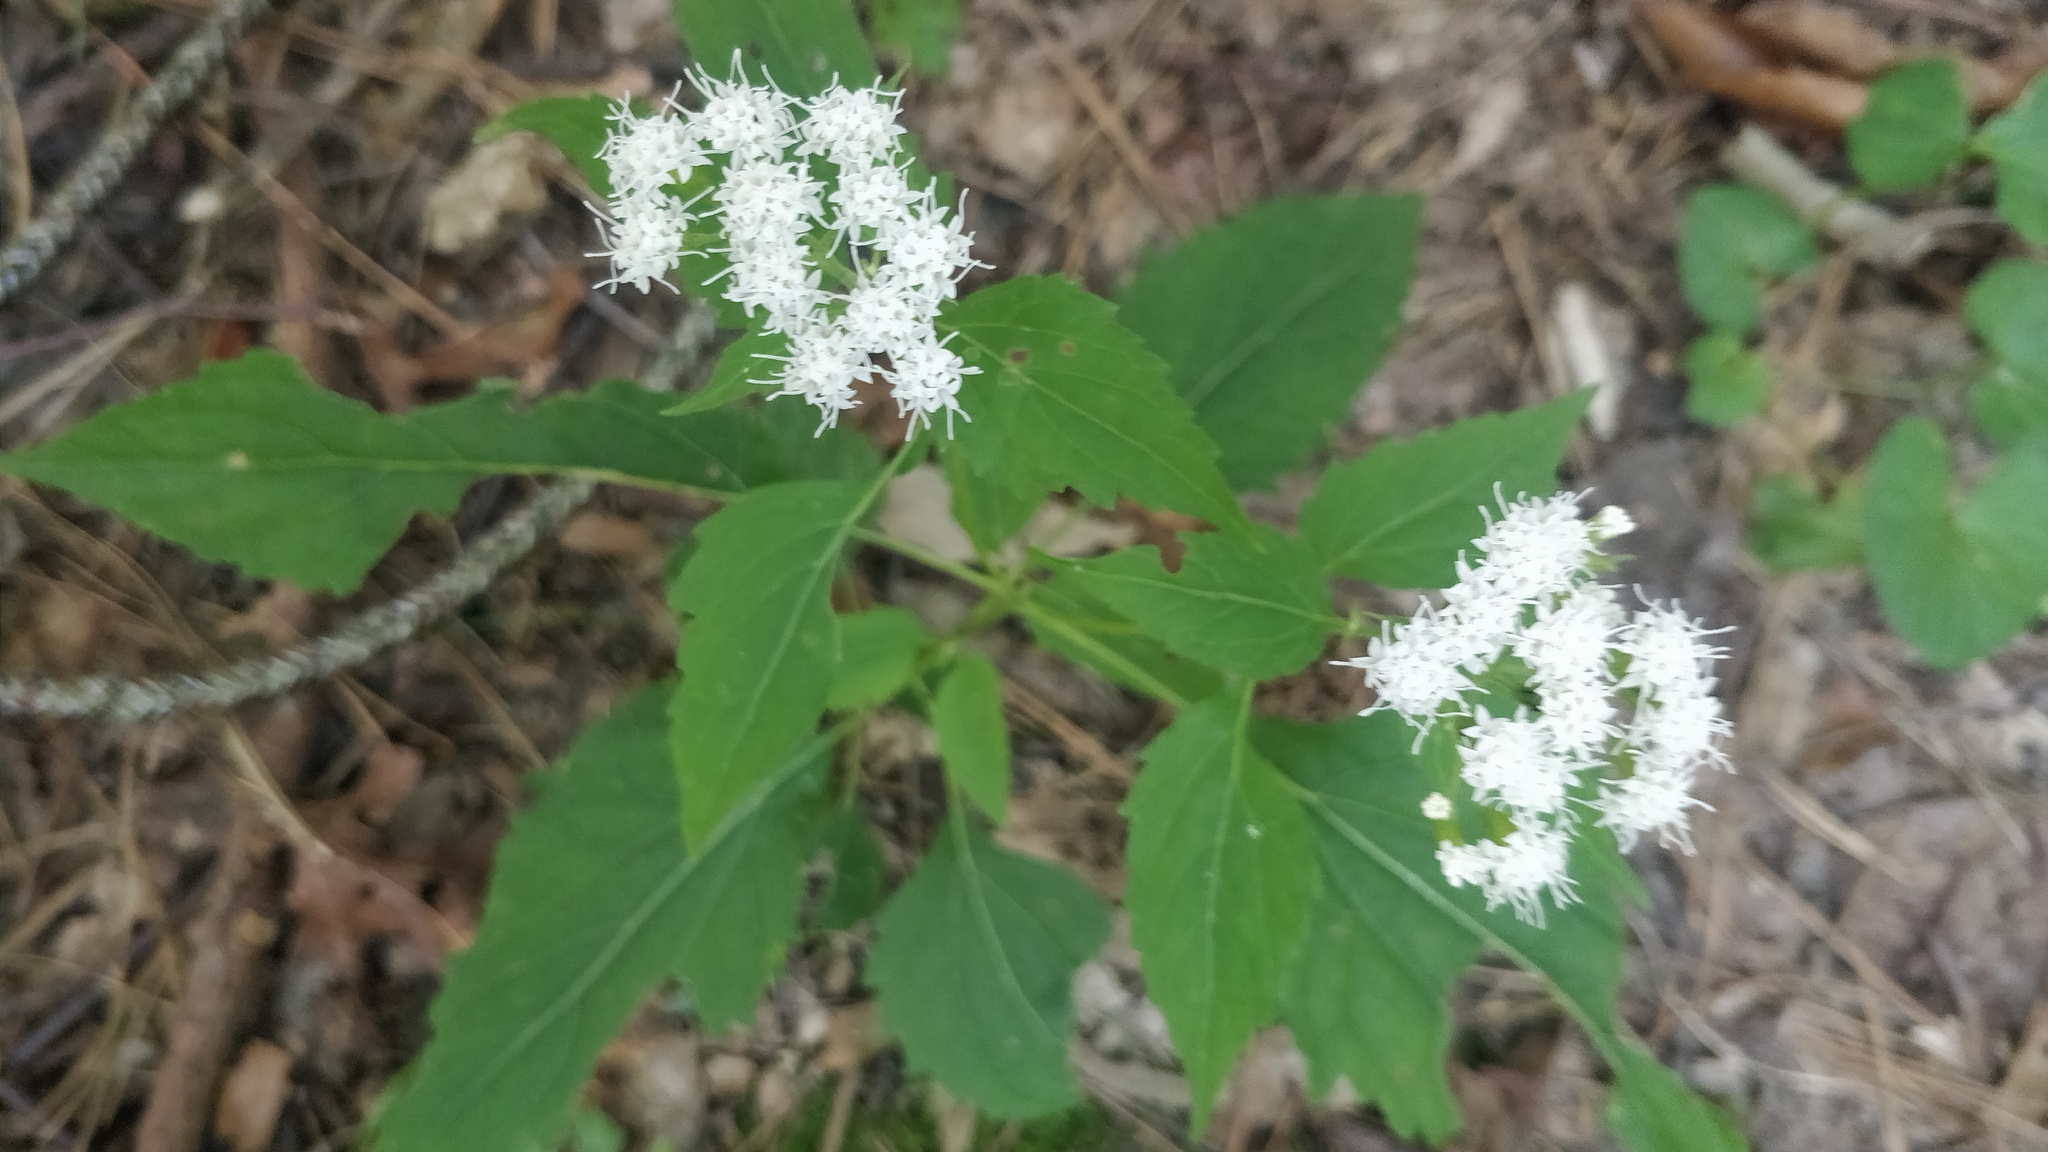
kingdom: Plantae
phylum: Tracheophyta
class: Magnoliopsida
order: Asterales
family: Asteraceae
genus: Ageratina
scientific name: Ageratina altissima
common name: White snakeroot
